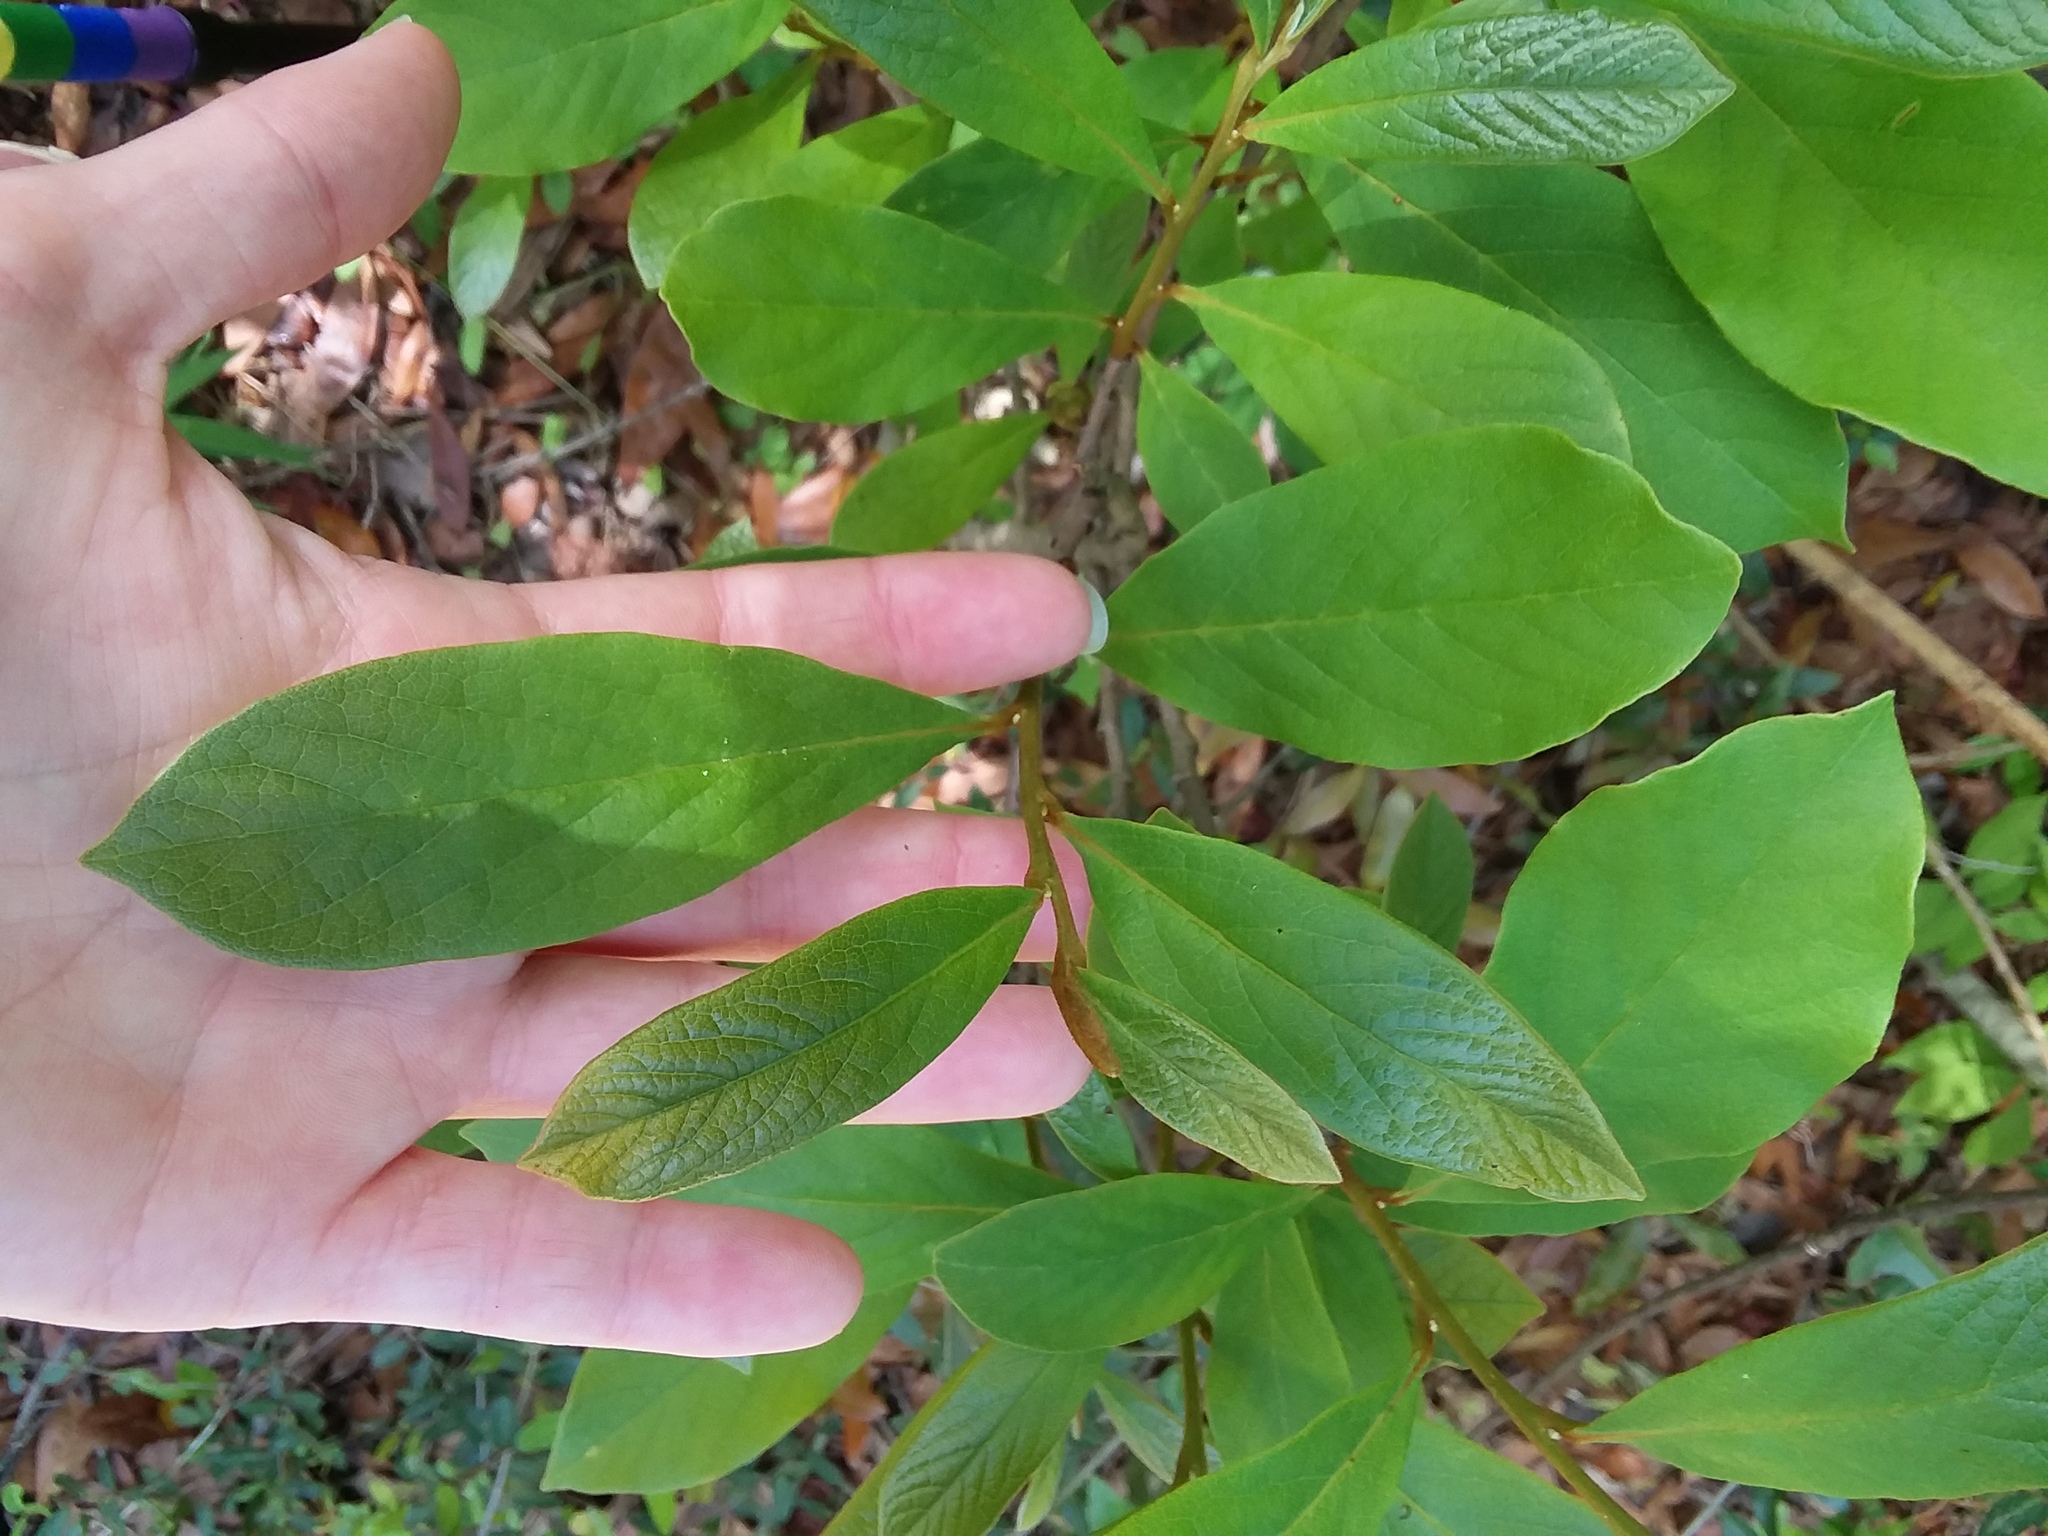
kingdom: Plantae
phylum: Tracheophyta
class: Magnoliopsida
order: Magnoliales
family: Annonaceae
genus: Asimina
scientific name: Asimina parviflora
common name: Dwarf pawpaw
